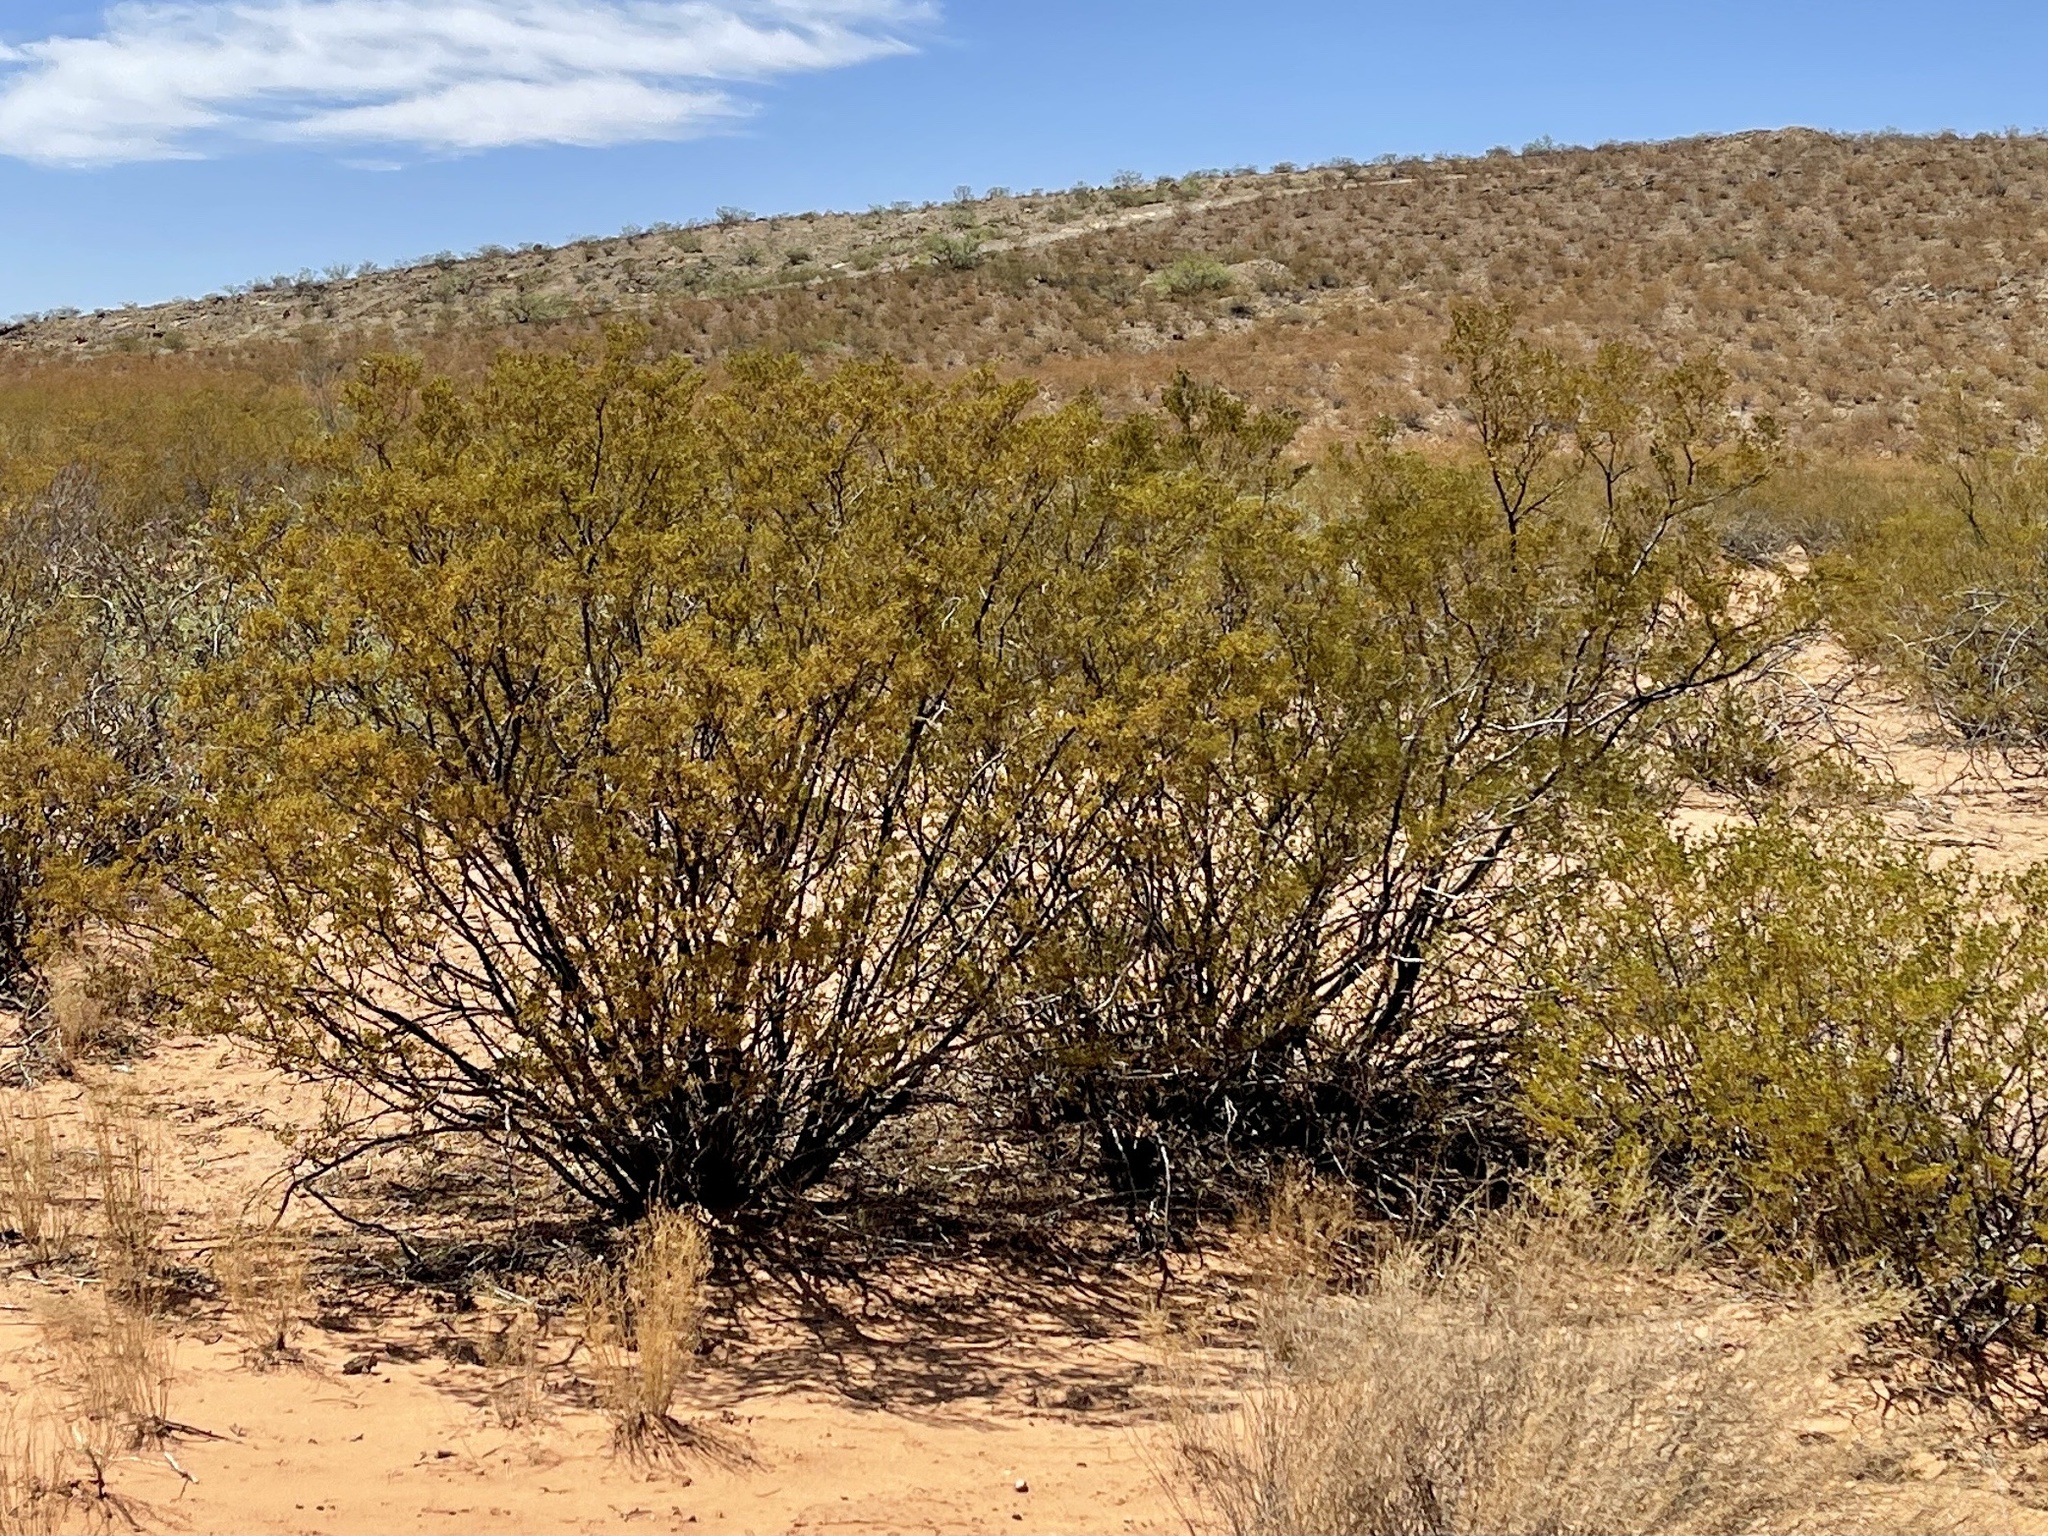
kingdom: Plantae
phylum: Tracheophyta
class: Magnoliopsida
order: Zygophyllales
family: Zygophyllaceae
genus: Larrea
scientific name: Larrea tridentata
